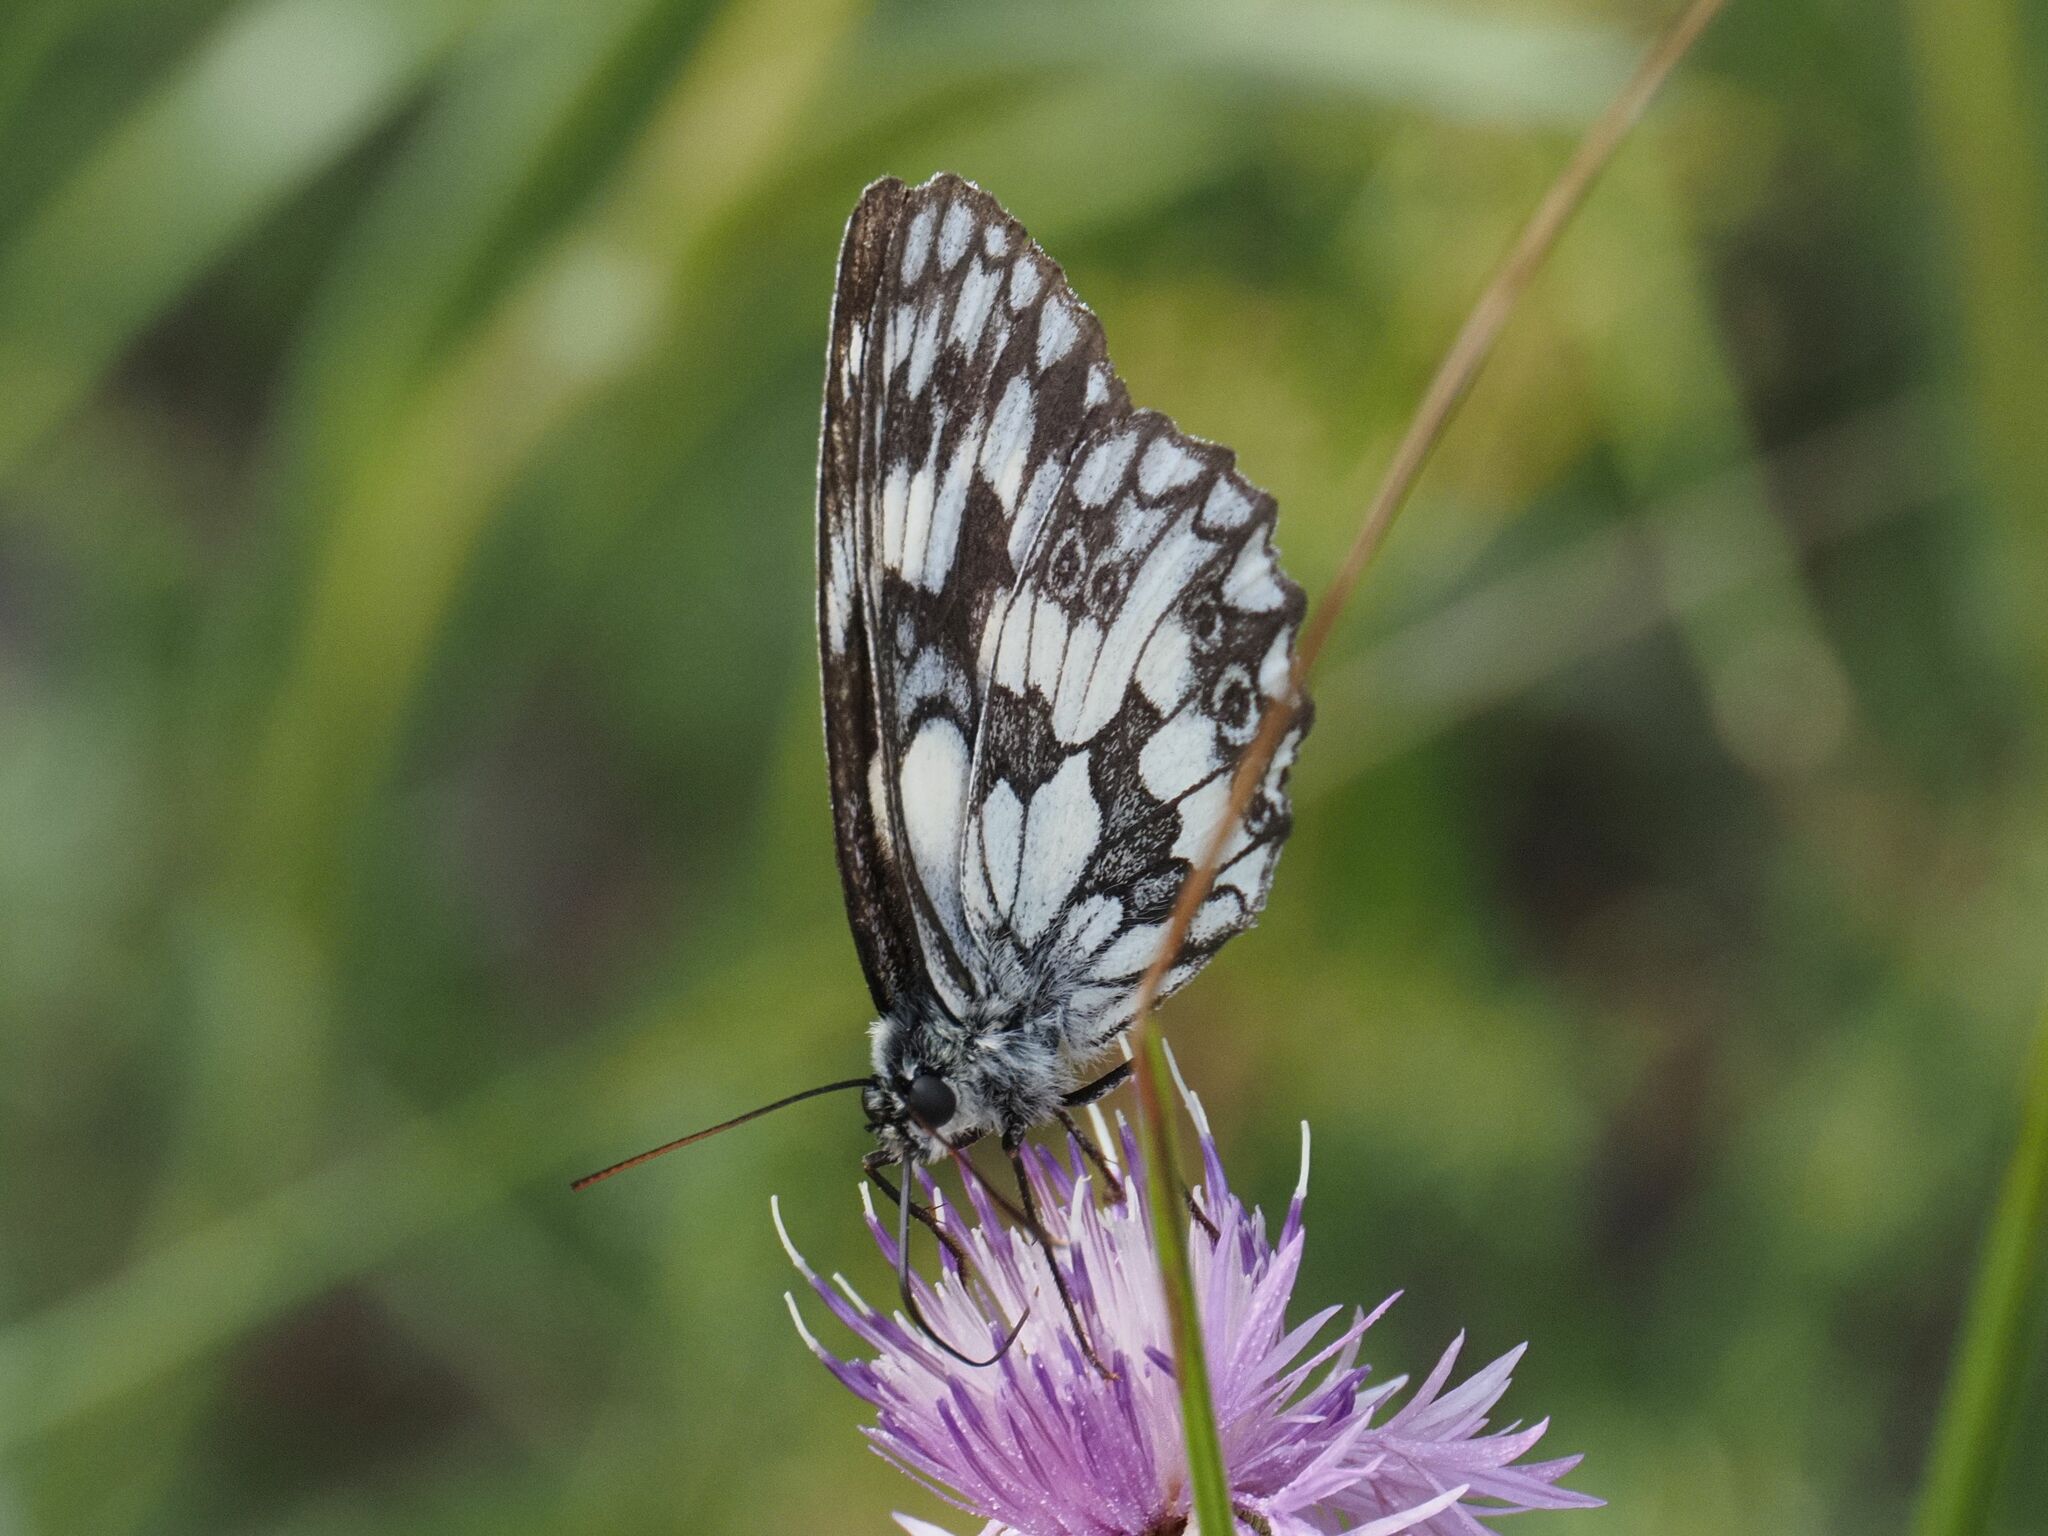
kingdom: Animalia
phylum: Arthropoda
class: Insecta
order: Lepidoptera
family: Nymphalidae
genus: Melanargia
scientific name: Melanargia galathea
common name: Marbled white
